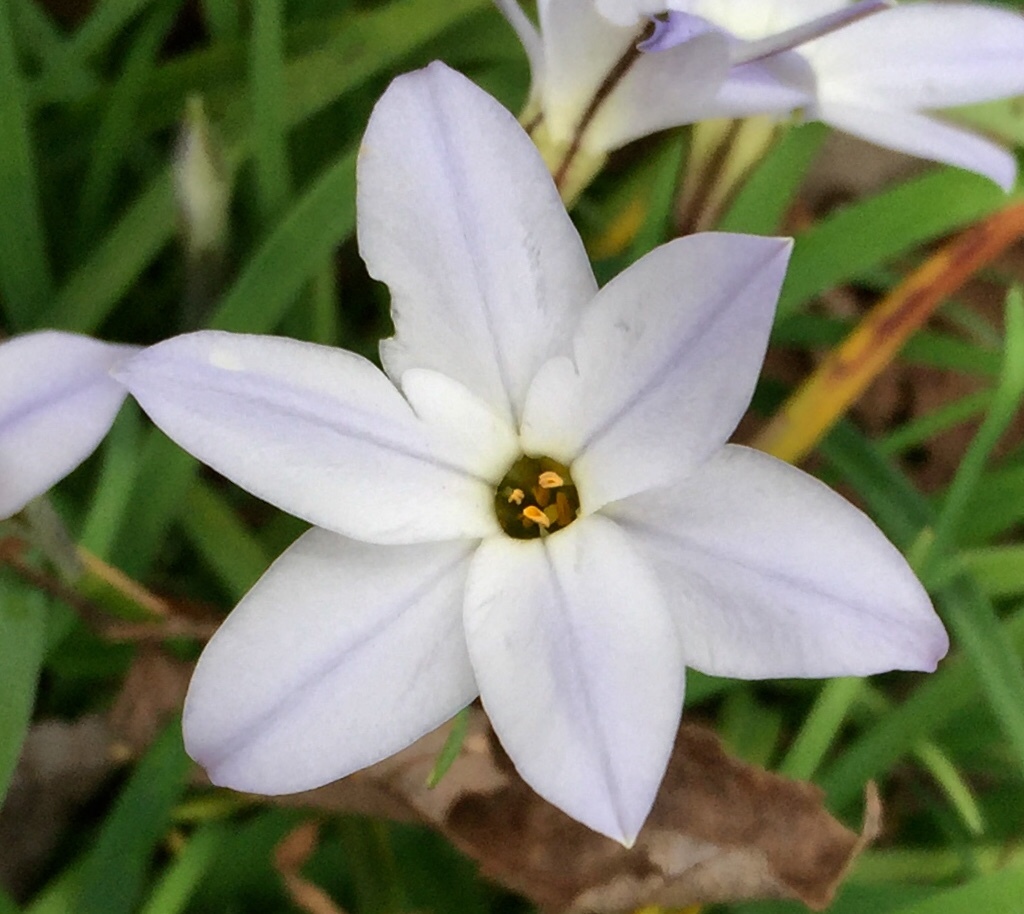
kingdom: Plantae
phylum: Tracheophyta
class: Liliopsida
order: Asparagales
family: Amaryllidaceae
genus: Ipheion
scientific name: Ipheion uniflorum
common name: Spring starflower
